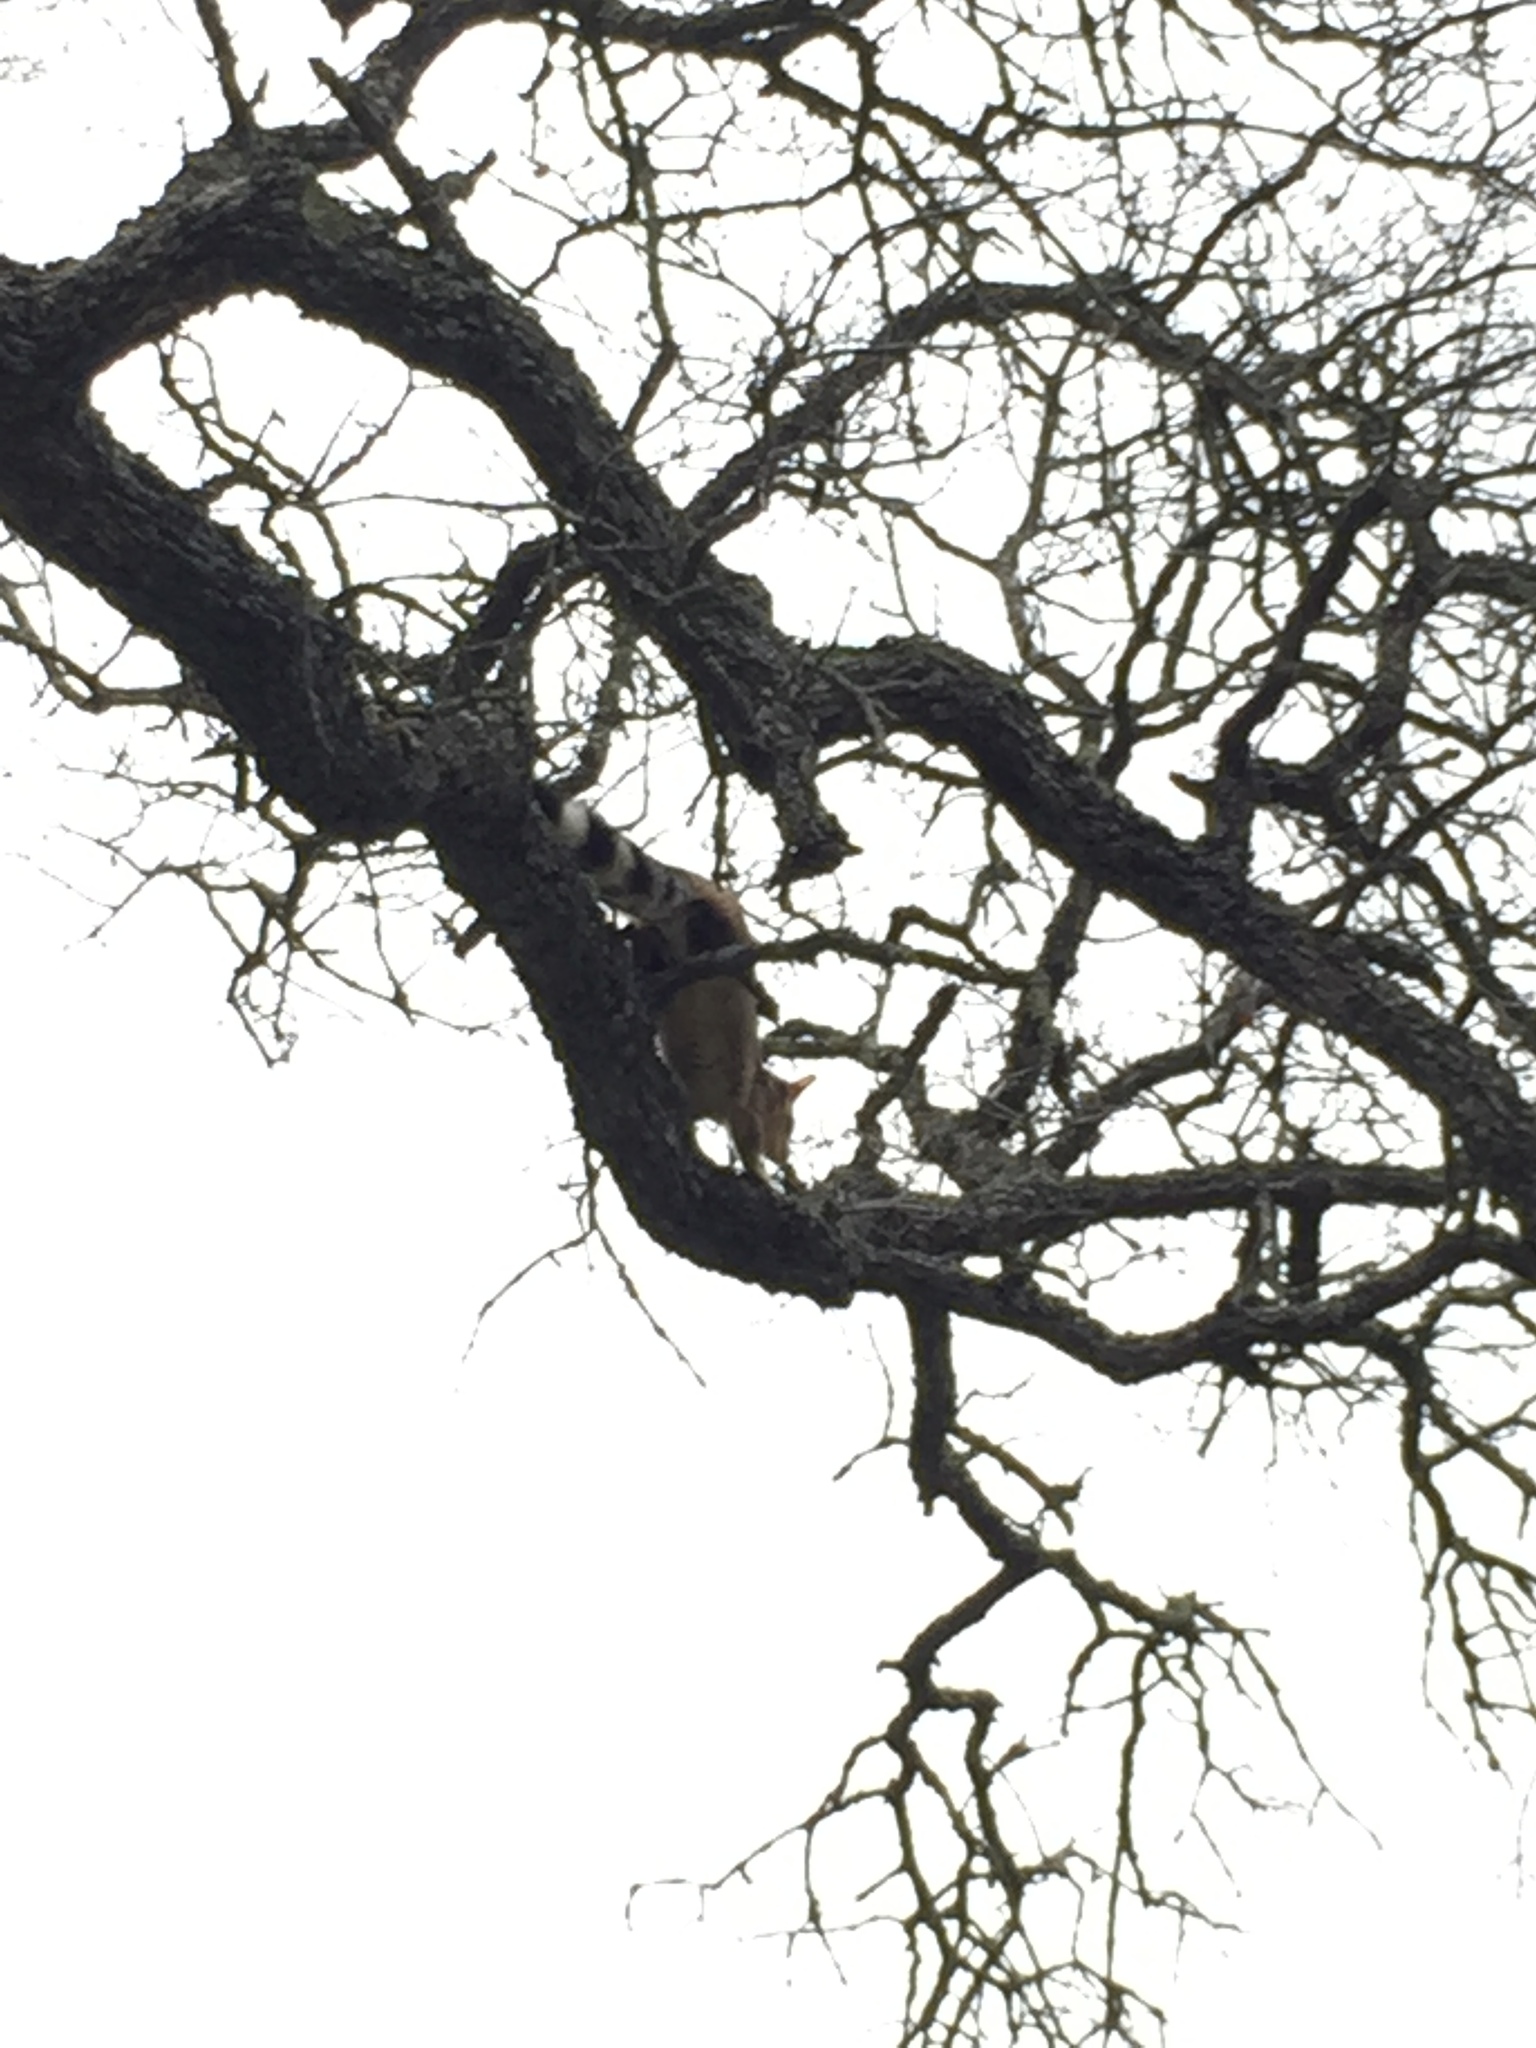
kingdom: Animalia
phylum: Chordata
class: Mammalia
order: Carnivora
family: Procyonidae
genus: Bassariscus
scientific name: Bassariscus astutus
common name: Ringtail
